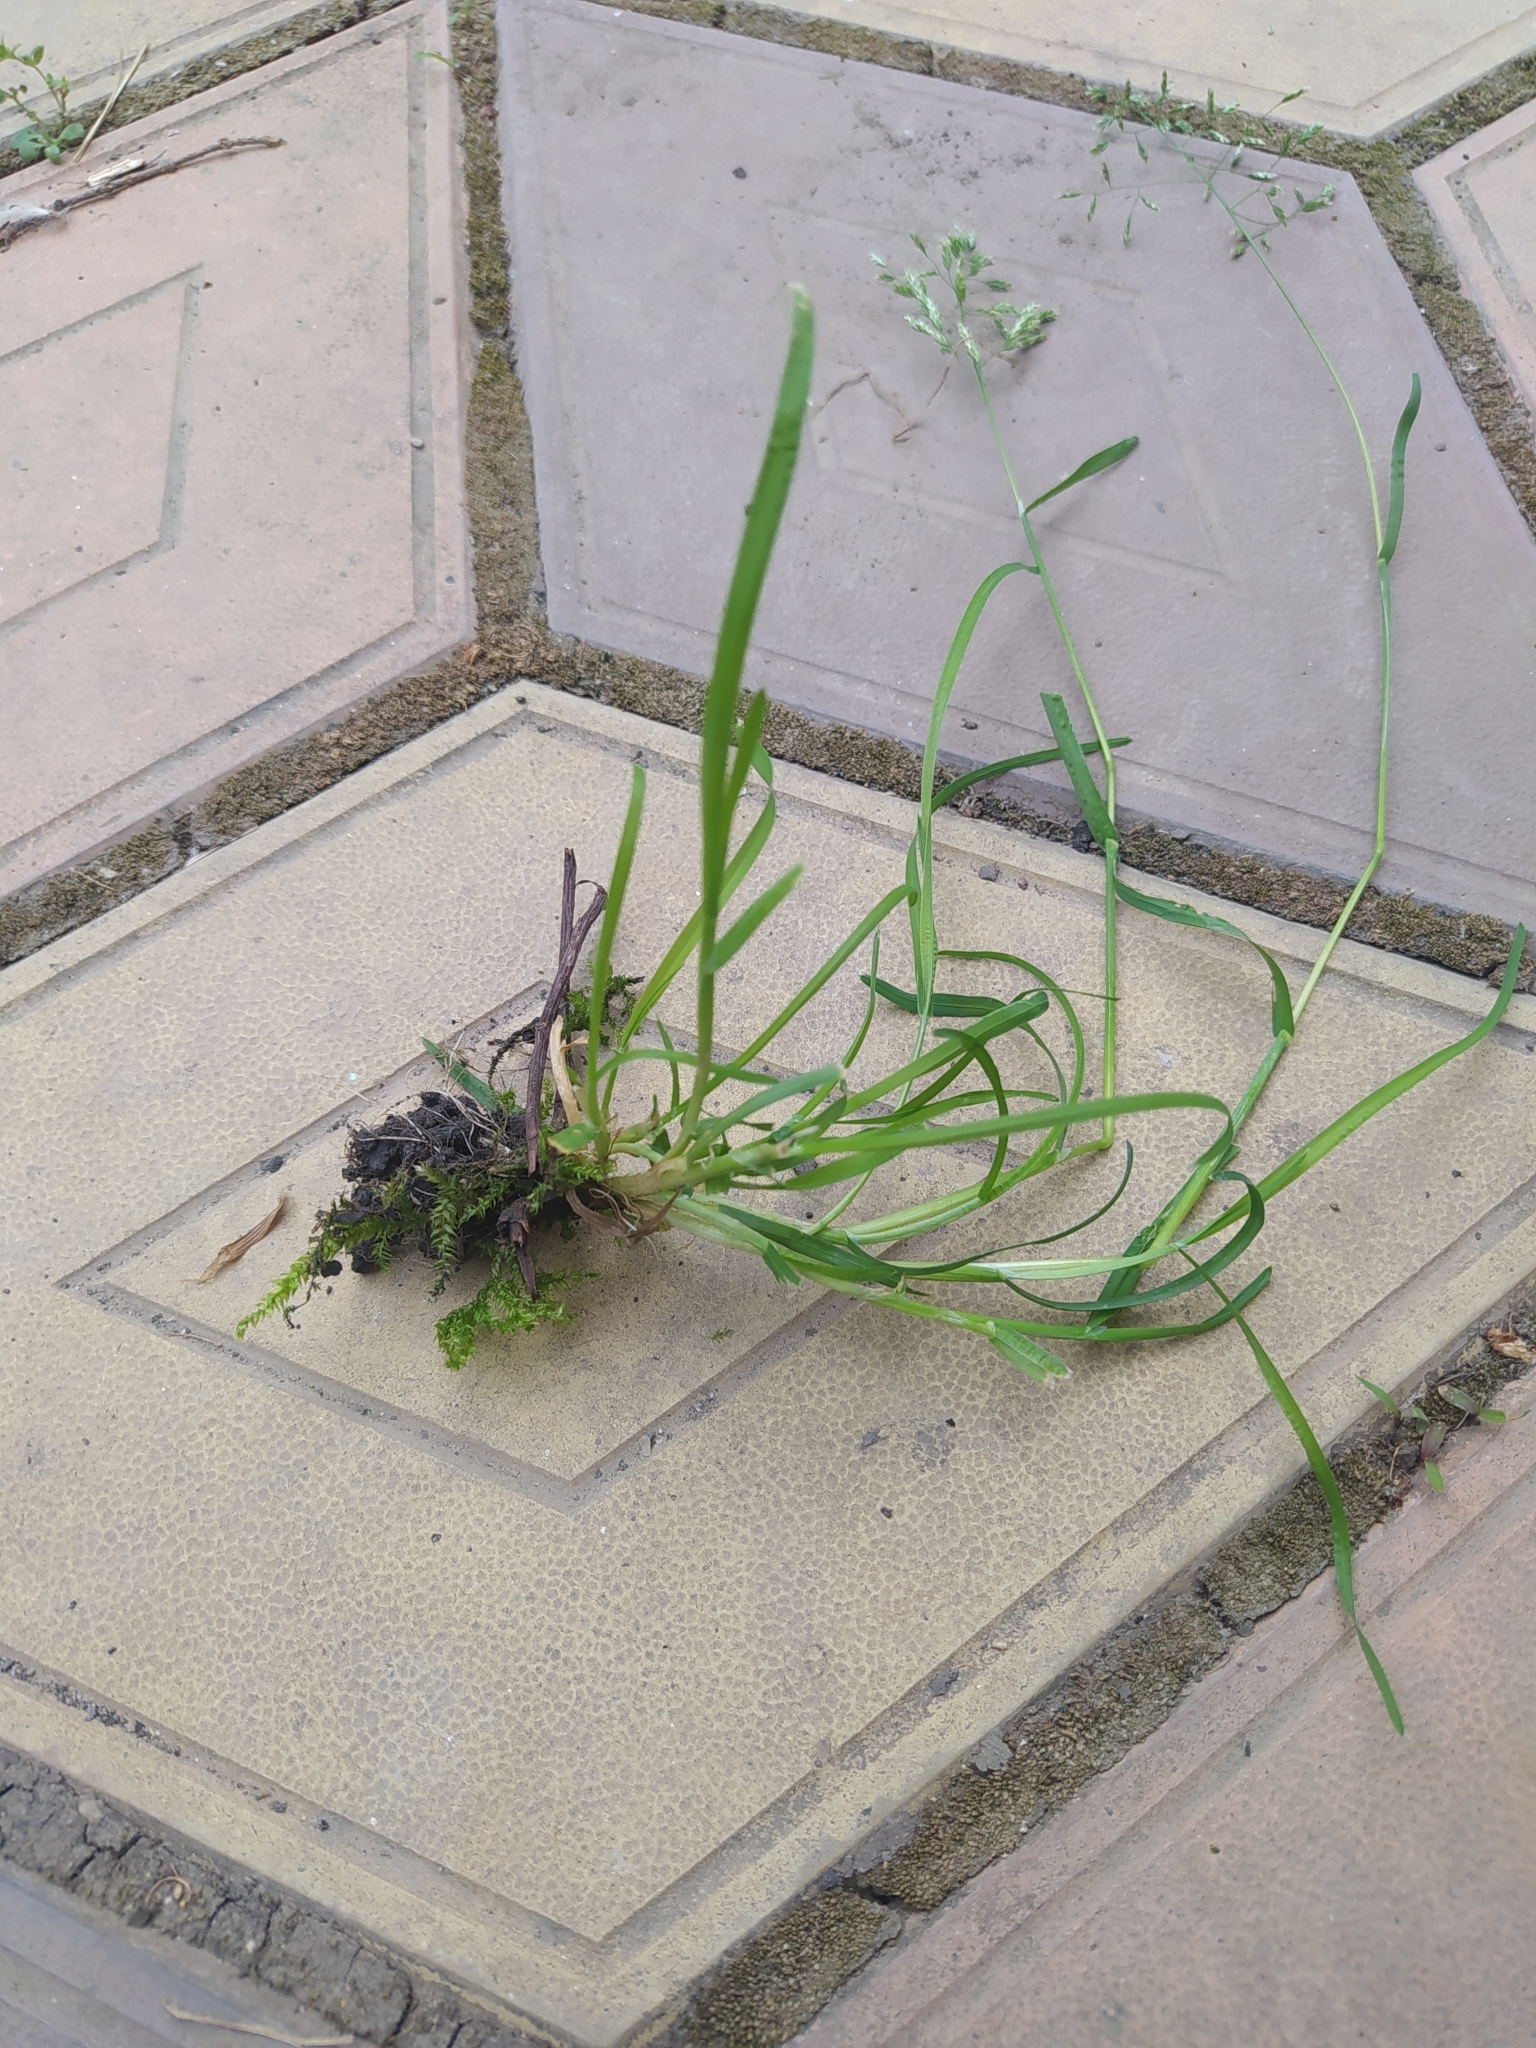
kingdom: Plantae
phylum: Tracheophyta
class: Liliopsida
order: Poales
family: Poaceae
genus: Poa
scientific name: Poa annua
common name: Annual bluegrass
